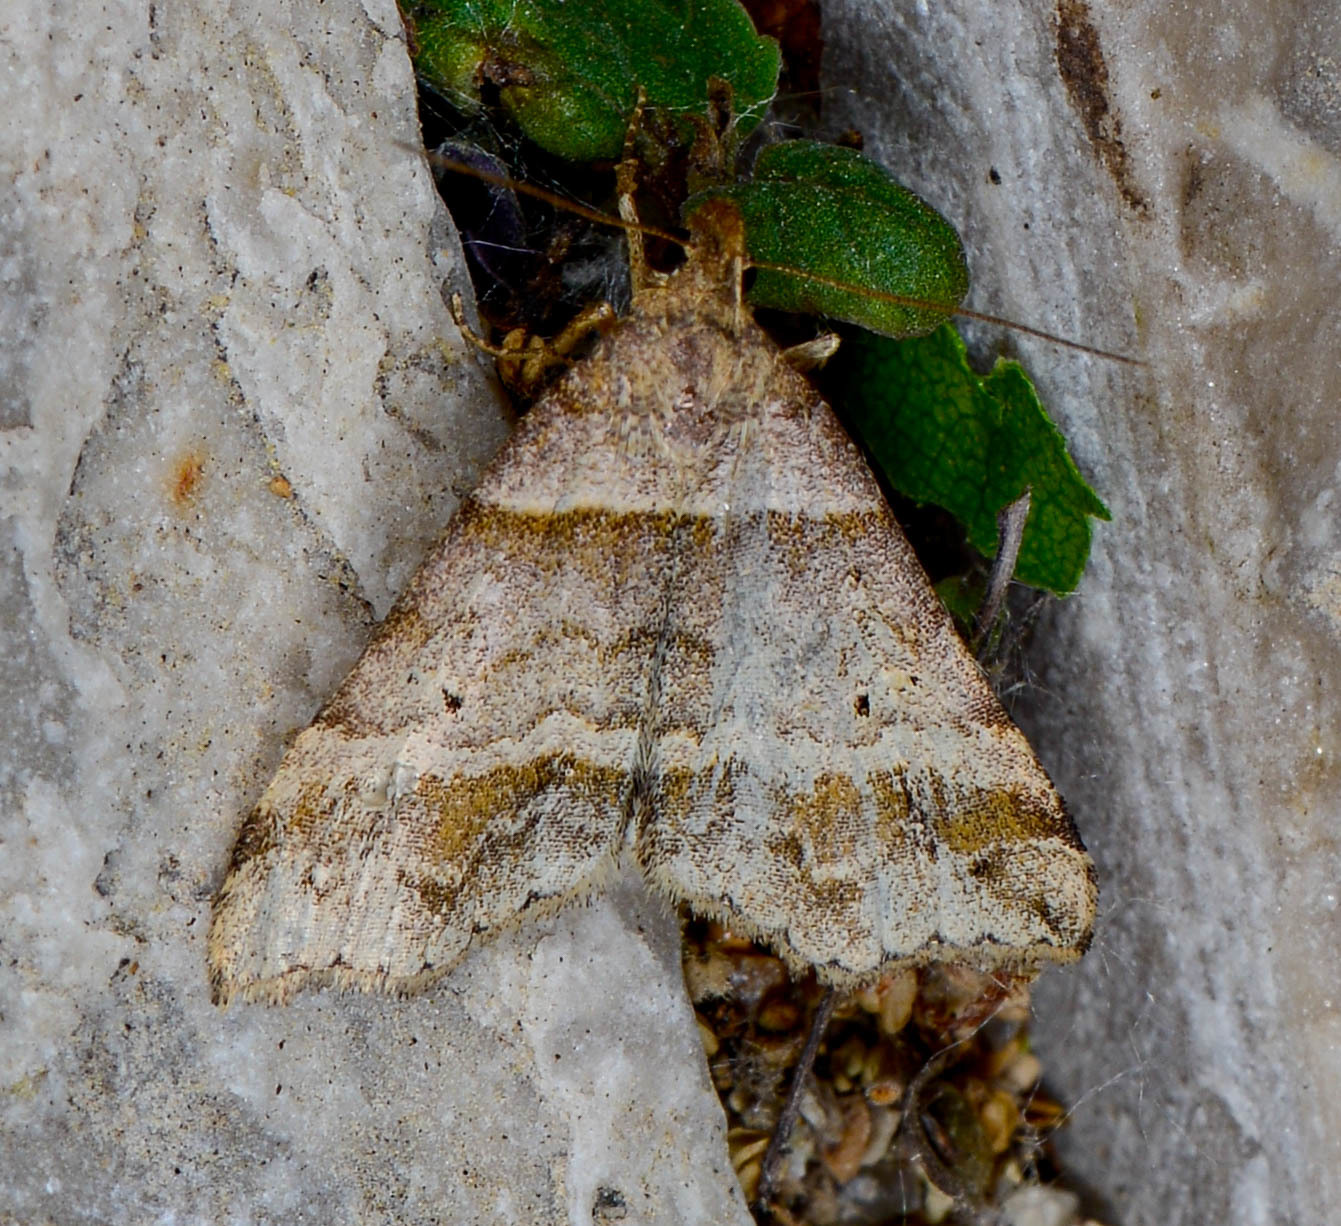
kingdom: Animalia
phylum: Arthropoda
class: Insecta
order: Lepidoptera
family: Erebidae
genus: Phaeolita
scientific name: Phaeolita pyramusalis
